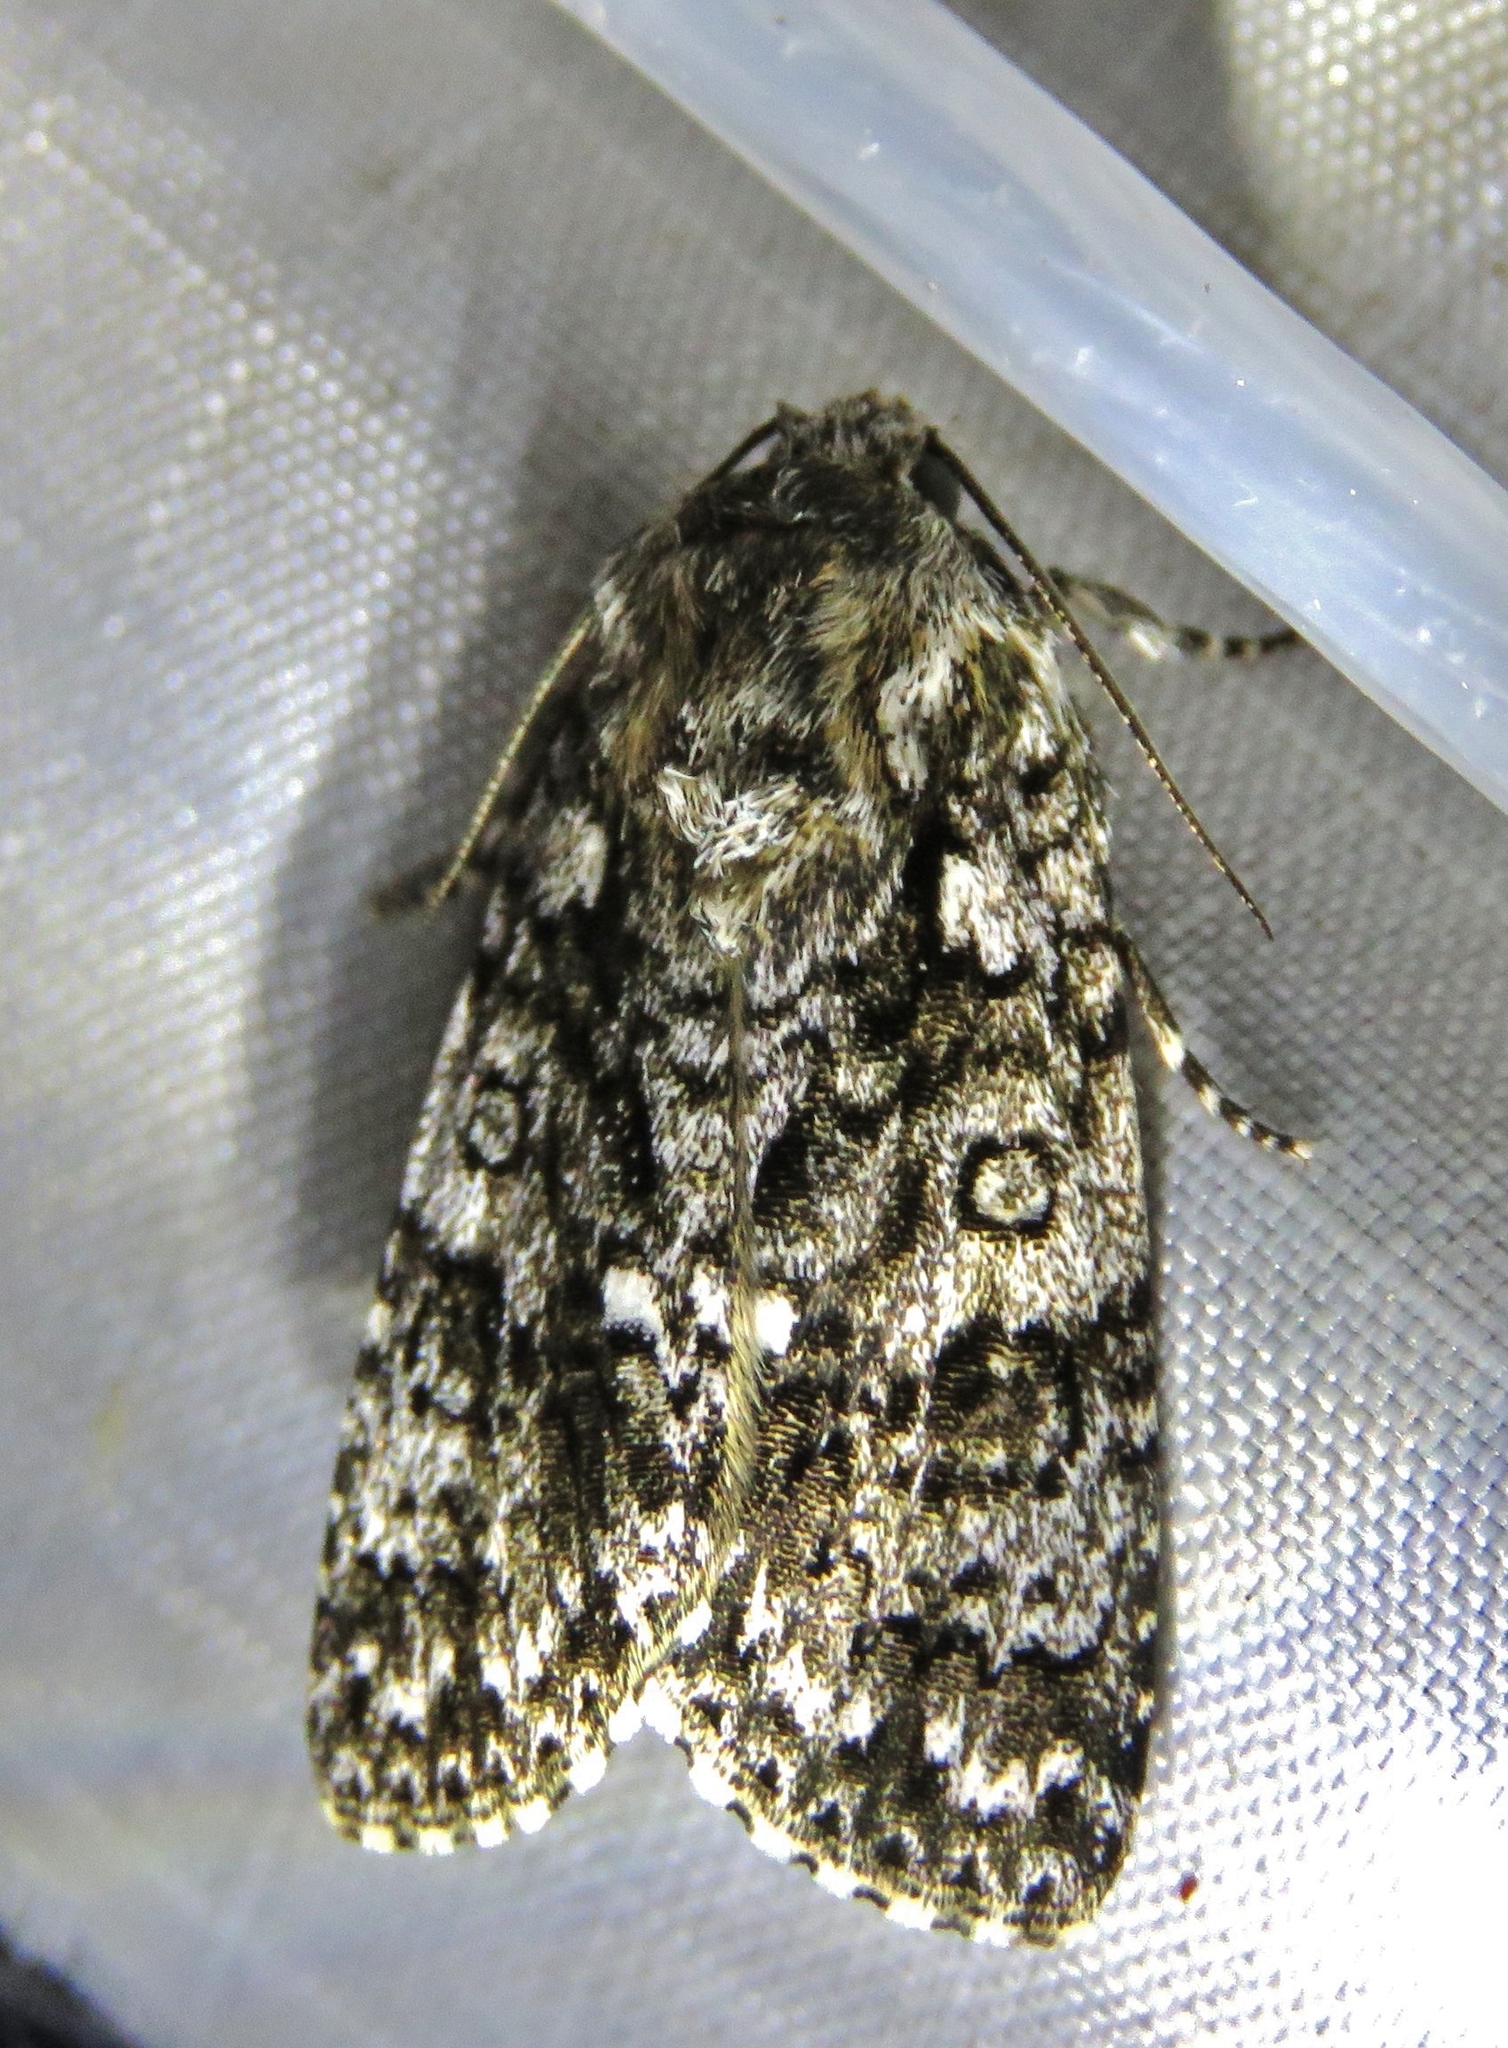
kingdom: Animalia
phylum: Arthropoda
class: Insecta
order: Lepidoptera
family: Noctuidae
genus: Acronicta
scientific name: Acronicta rumicis
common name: Knot grass
